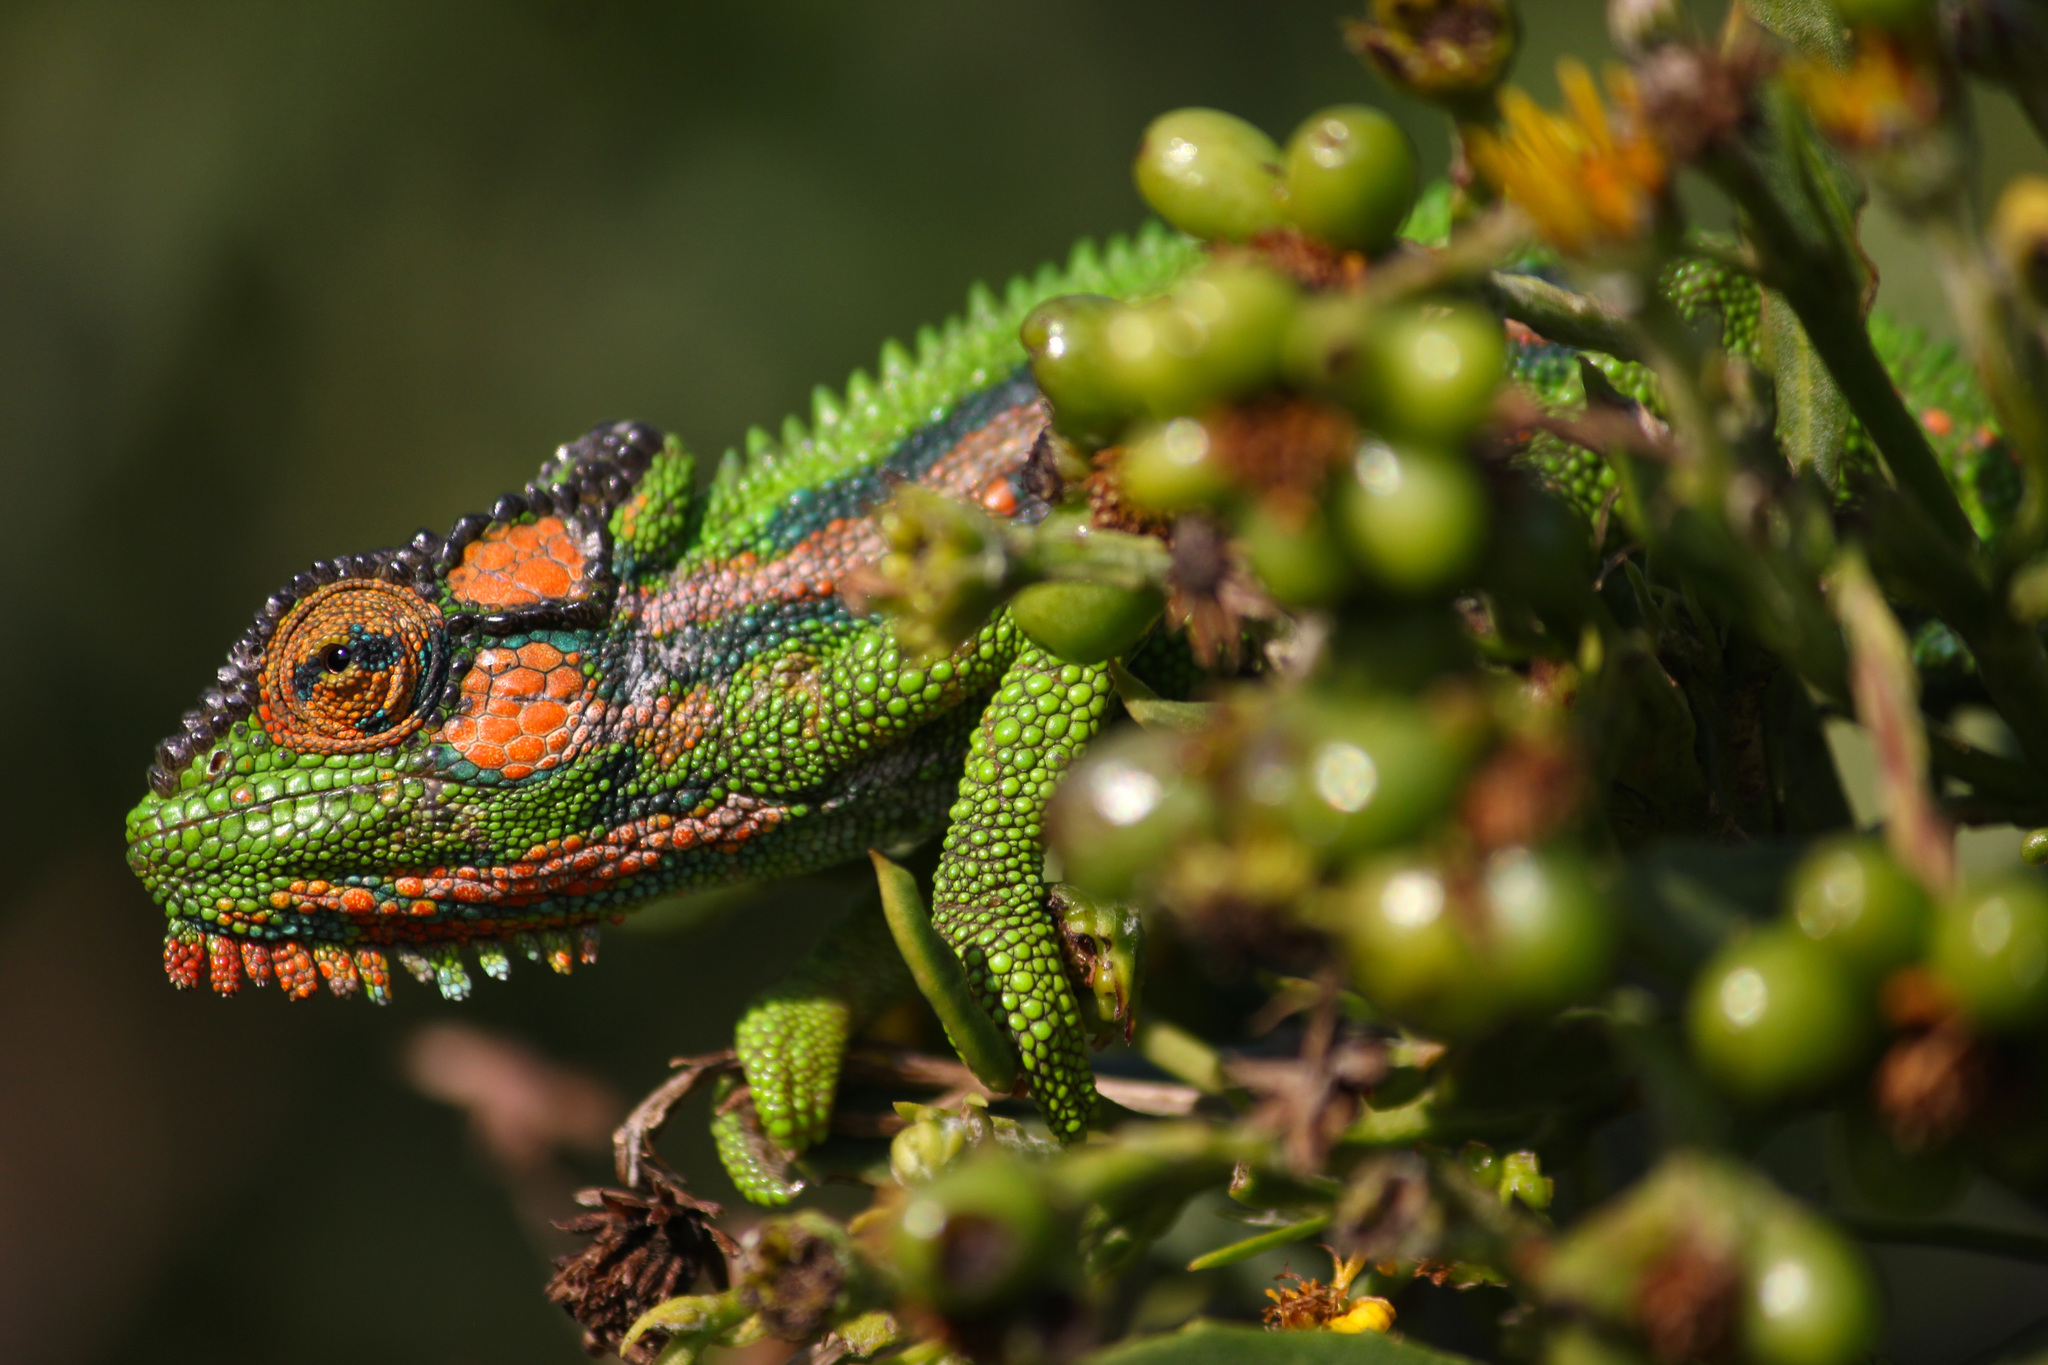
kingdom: Animalia
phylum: Chordata
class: Squamata
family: Chamaeleonidae
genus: Bradypodion
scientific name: Bradypodion pumilum
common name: Cape dwarf chameleon
